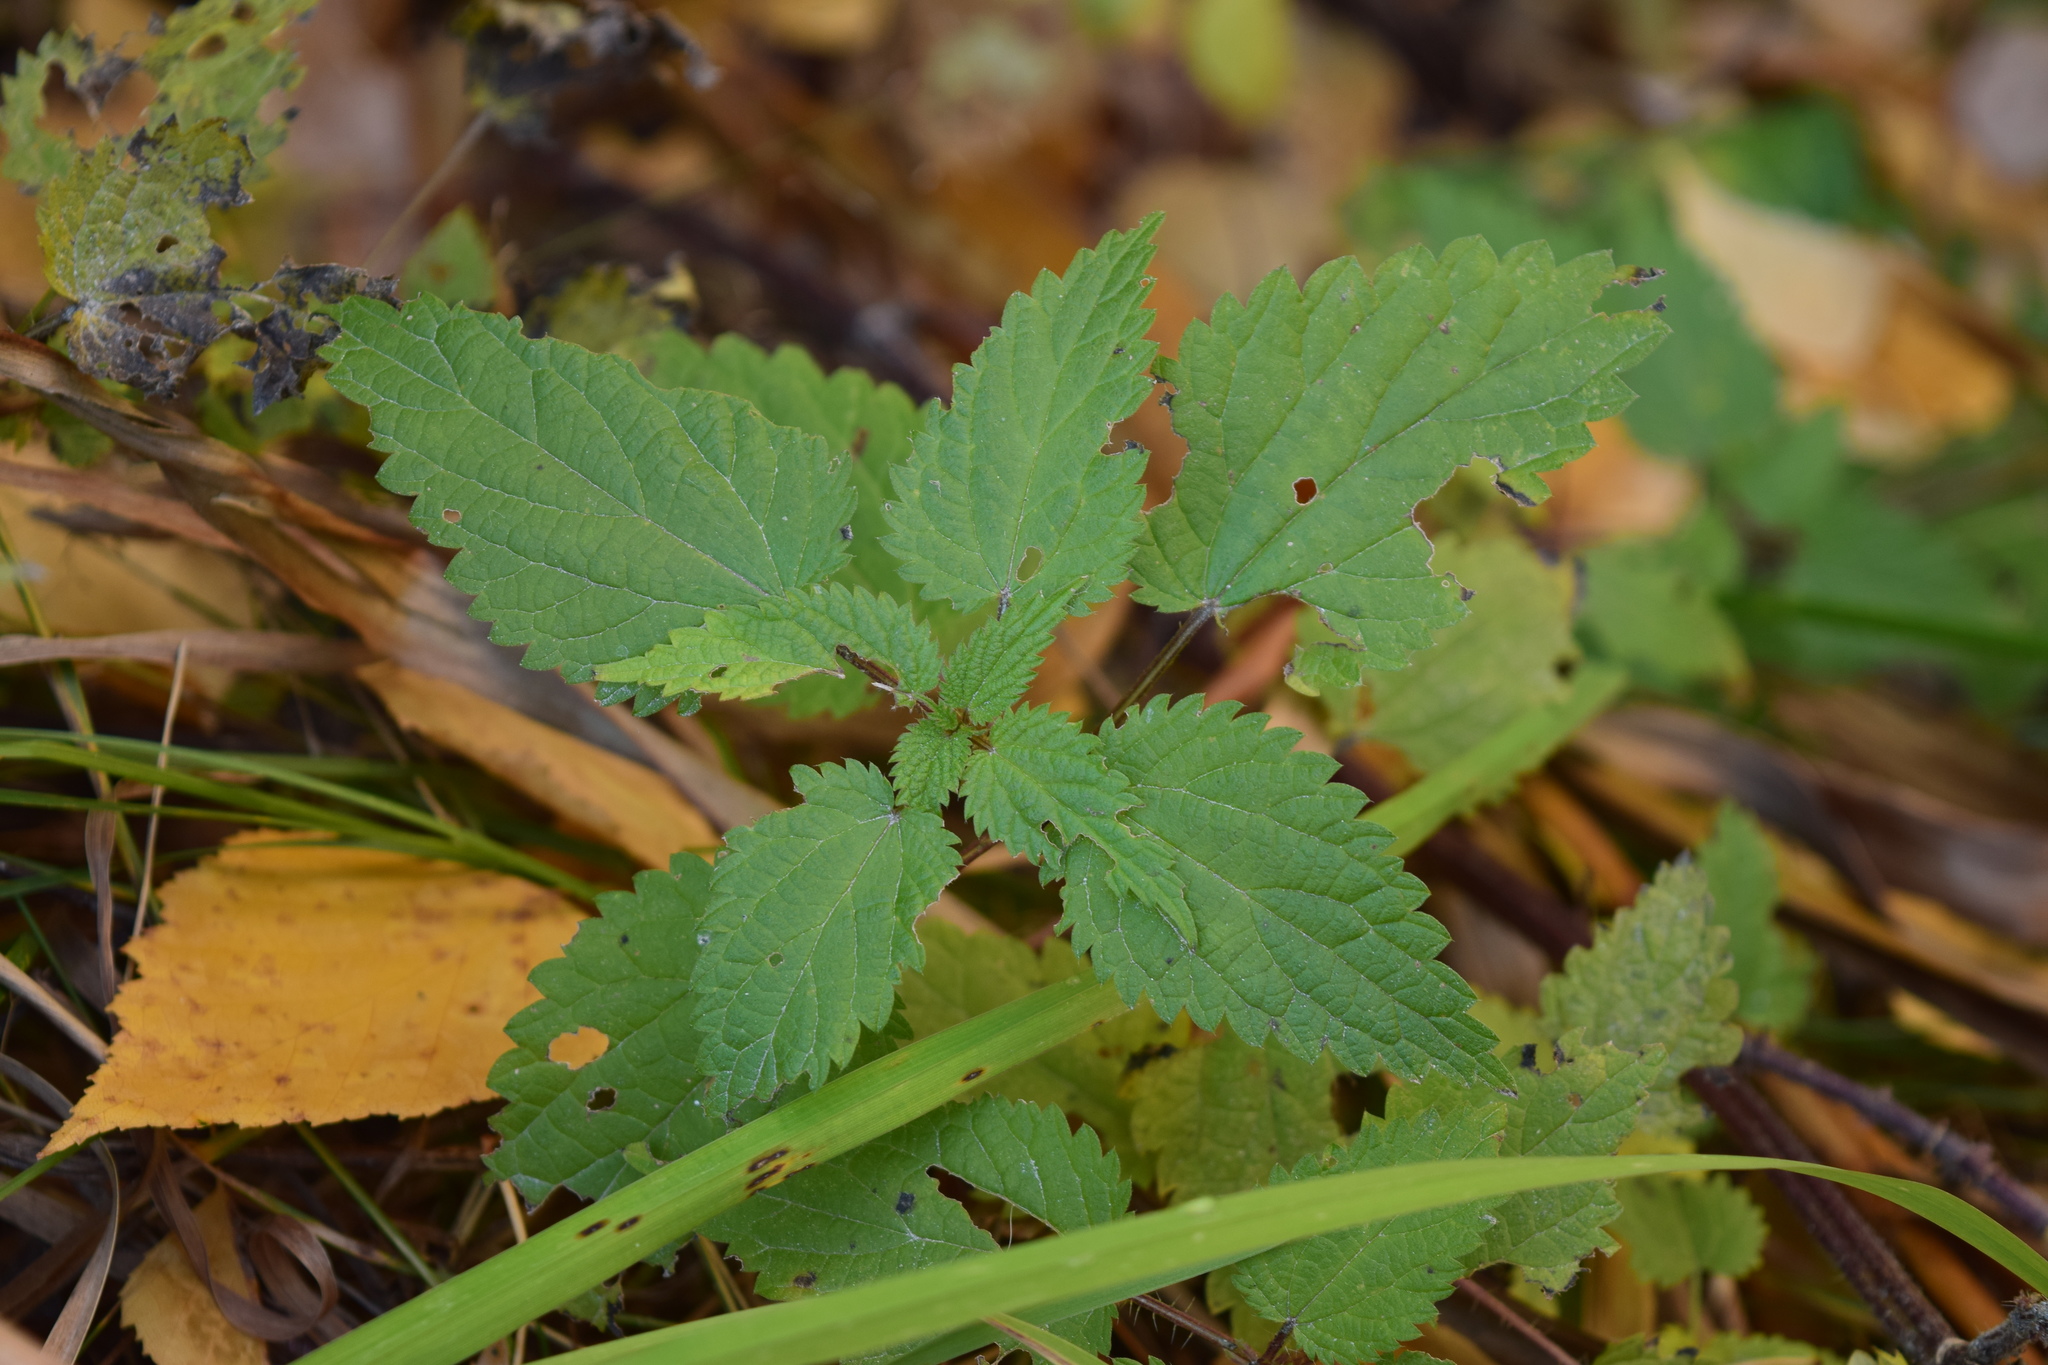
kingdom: Plantae
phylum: Tracheophyta
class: Magnoliopsida
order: Rosales
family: Urticaceae
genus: Urtica
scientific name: Urtica dioica
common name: Common nettle
